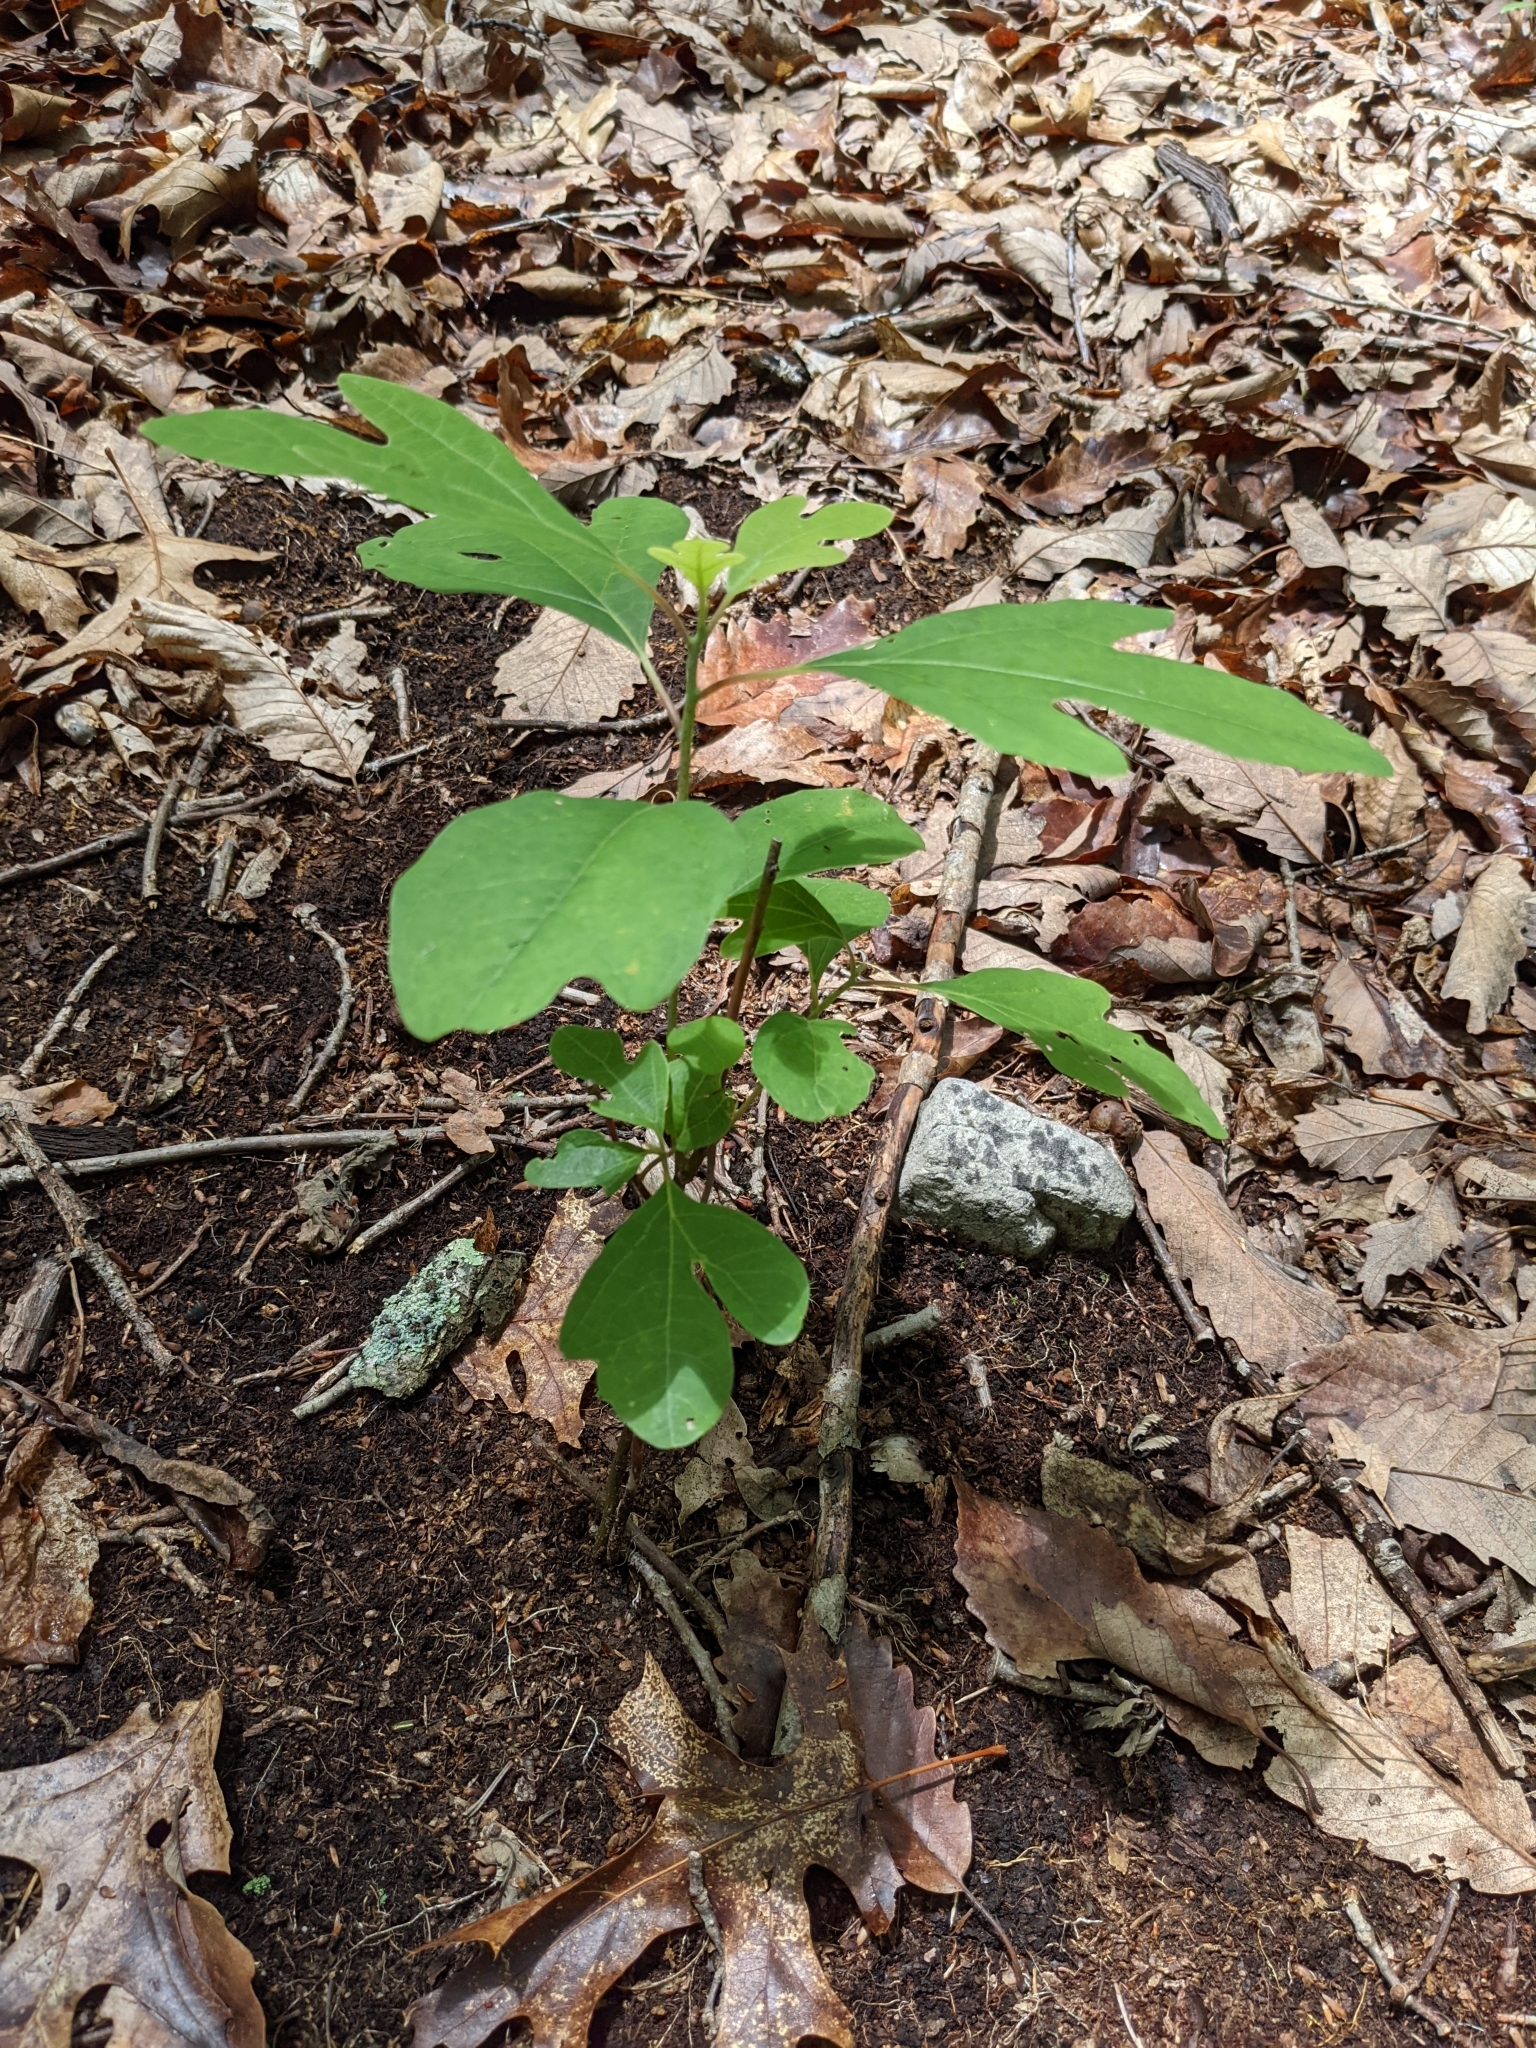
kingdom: Plantae
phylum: Tracheophyta
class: Magnoliopsida
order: Laurales
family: Lauraceae
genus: Sassafras
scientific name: Sassafras albidum
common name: Sassafras
